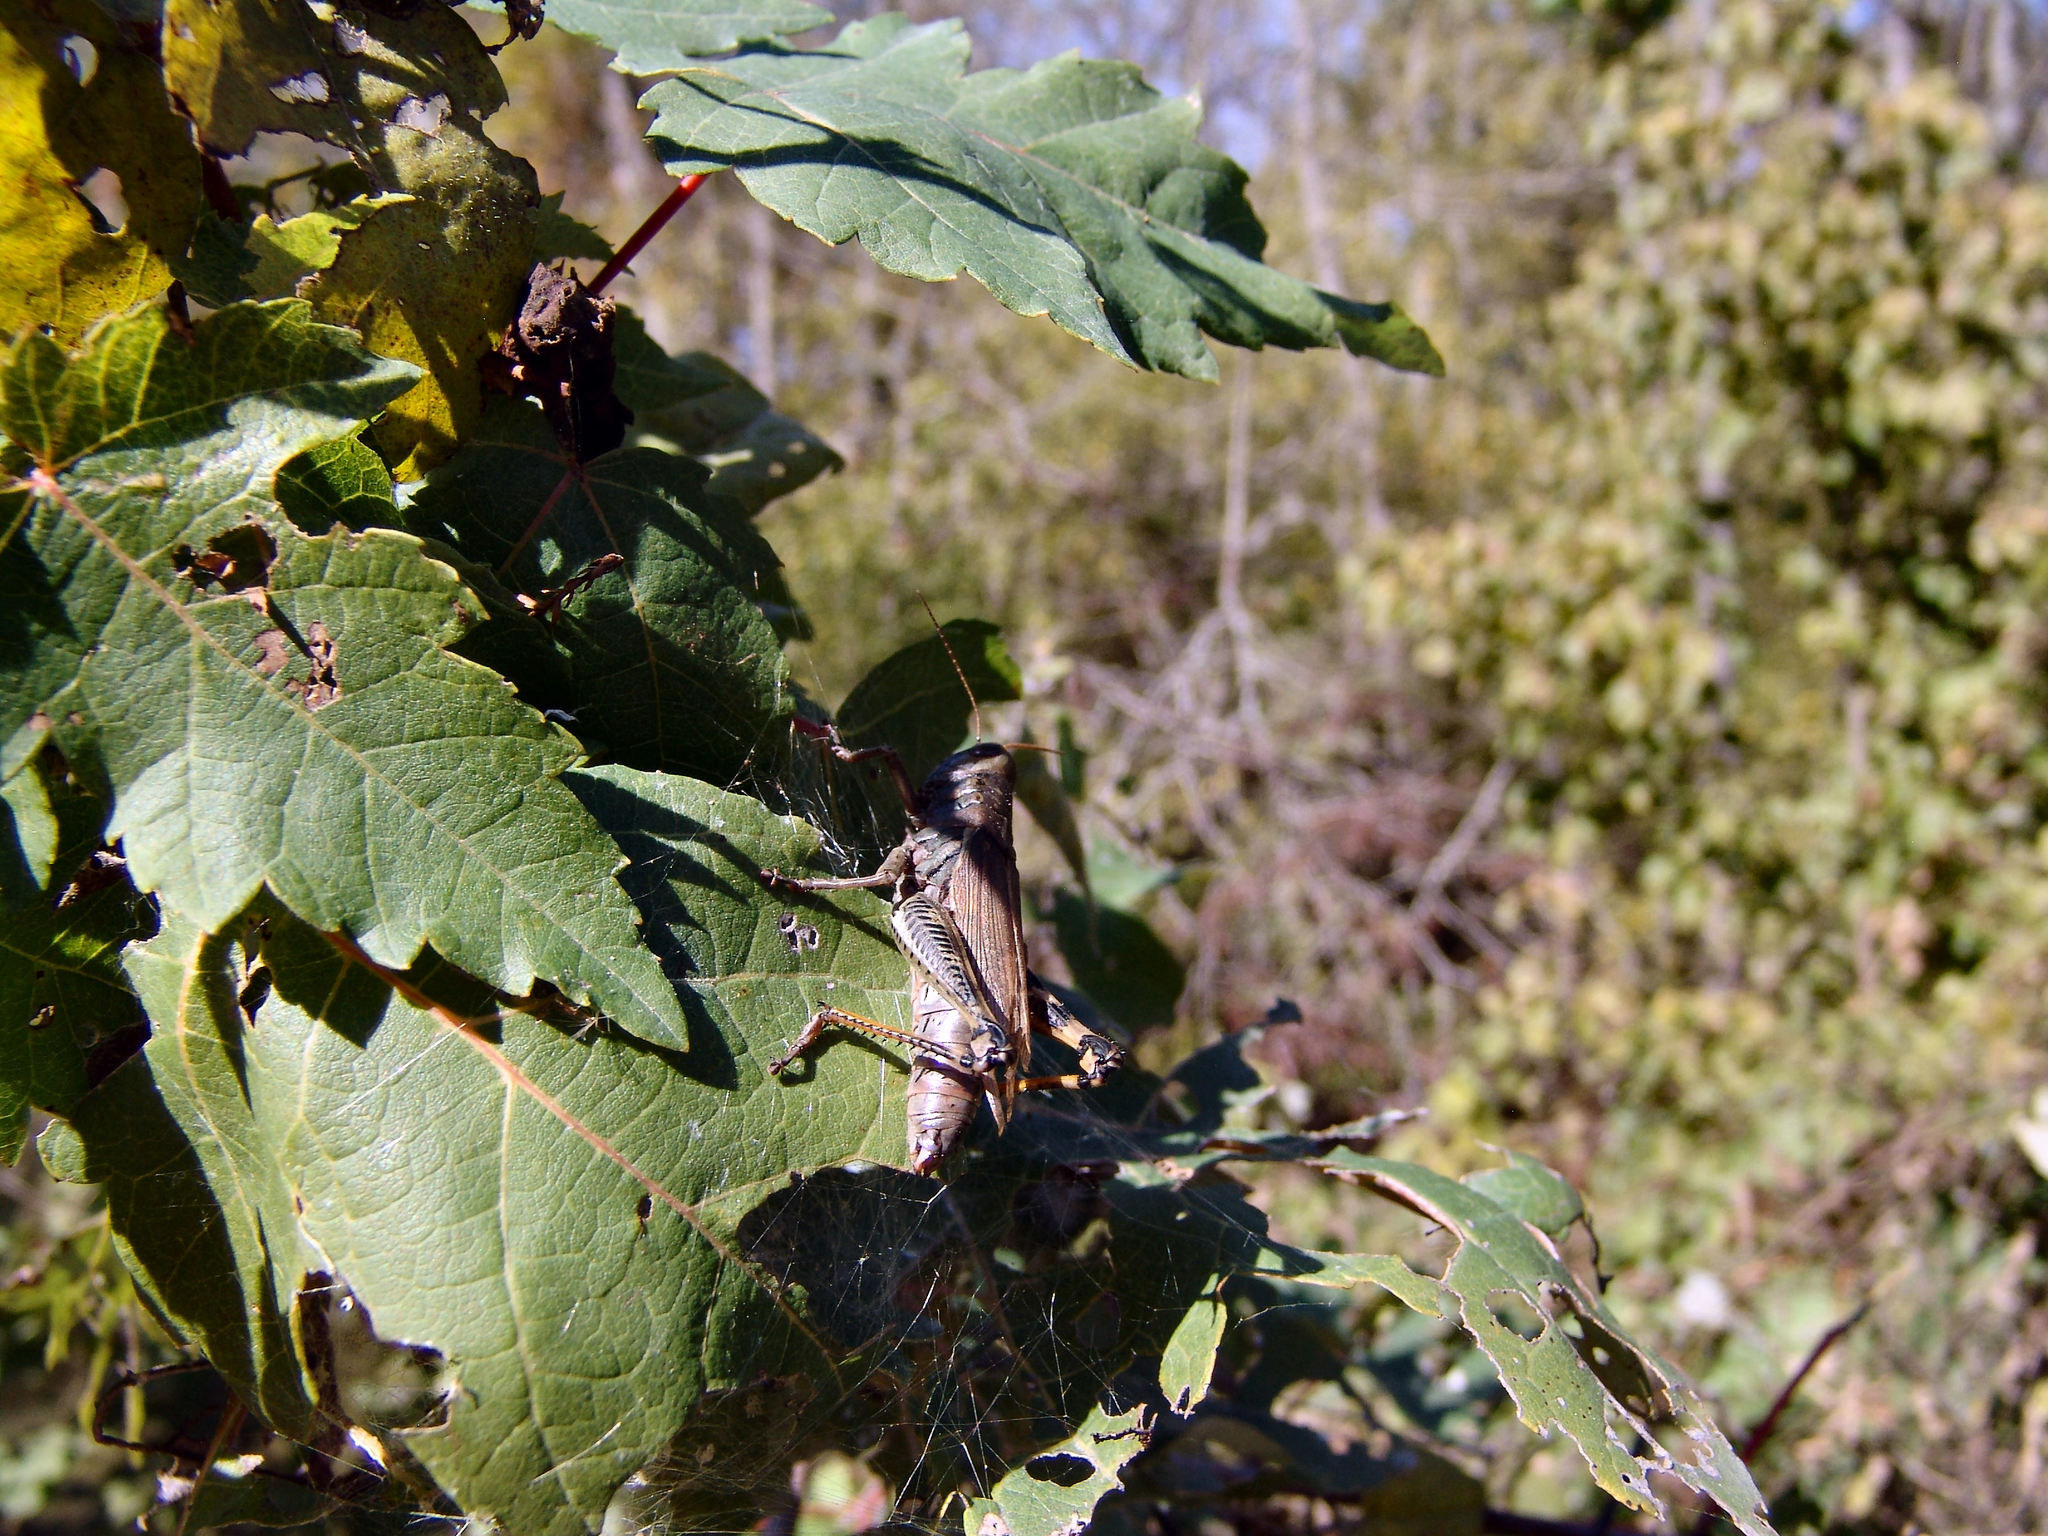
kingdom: Animalia
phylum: Arthropoda
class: Insecta
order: Orthoptera
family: Acrididae
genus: Melanoplus
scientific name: Melanoplus differentialis
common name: Differential grasshopper
